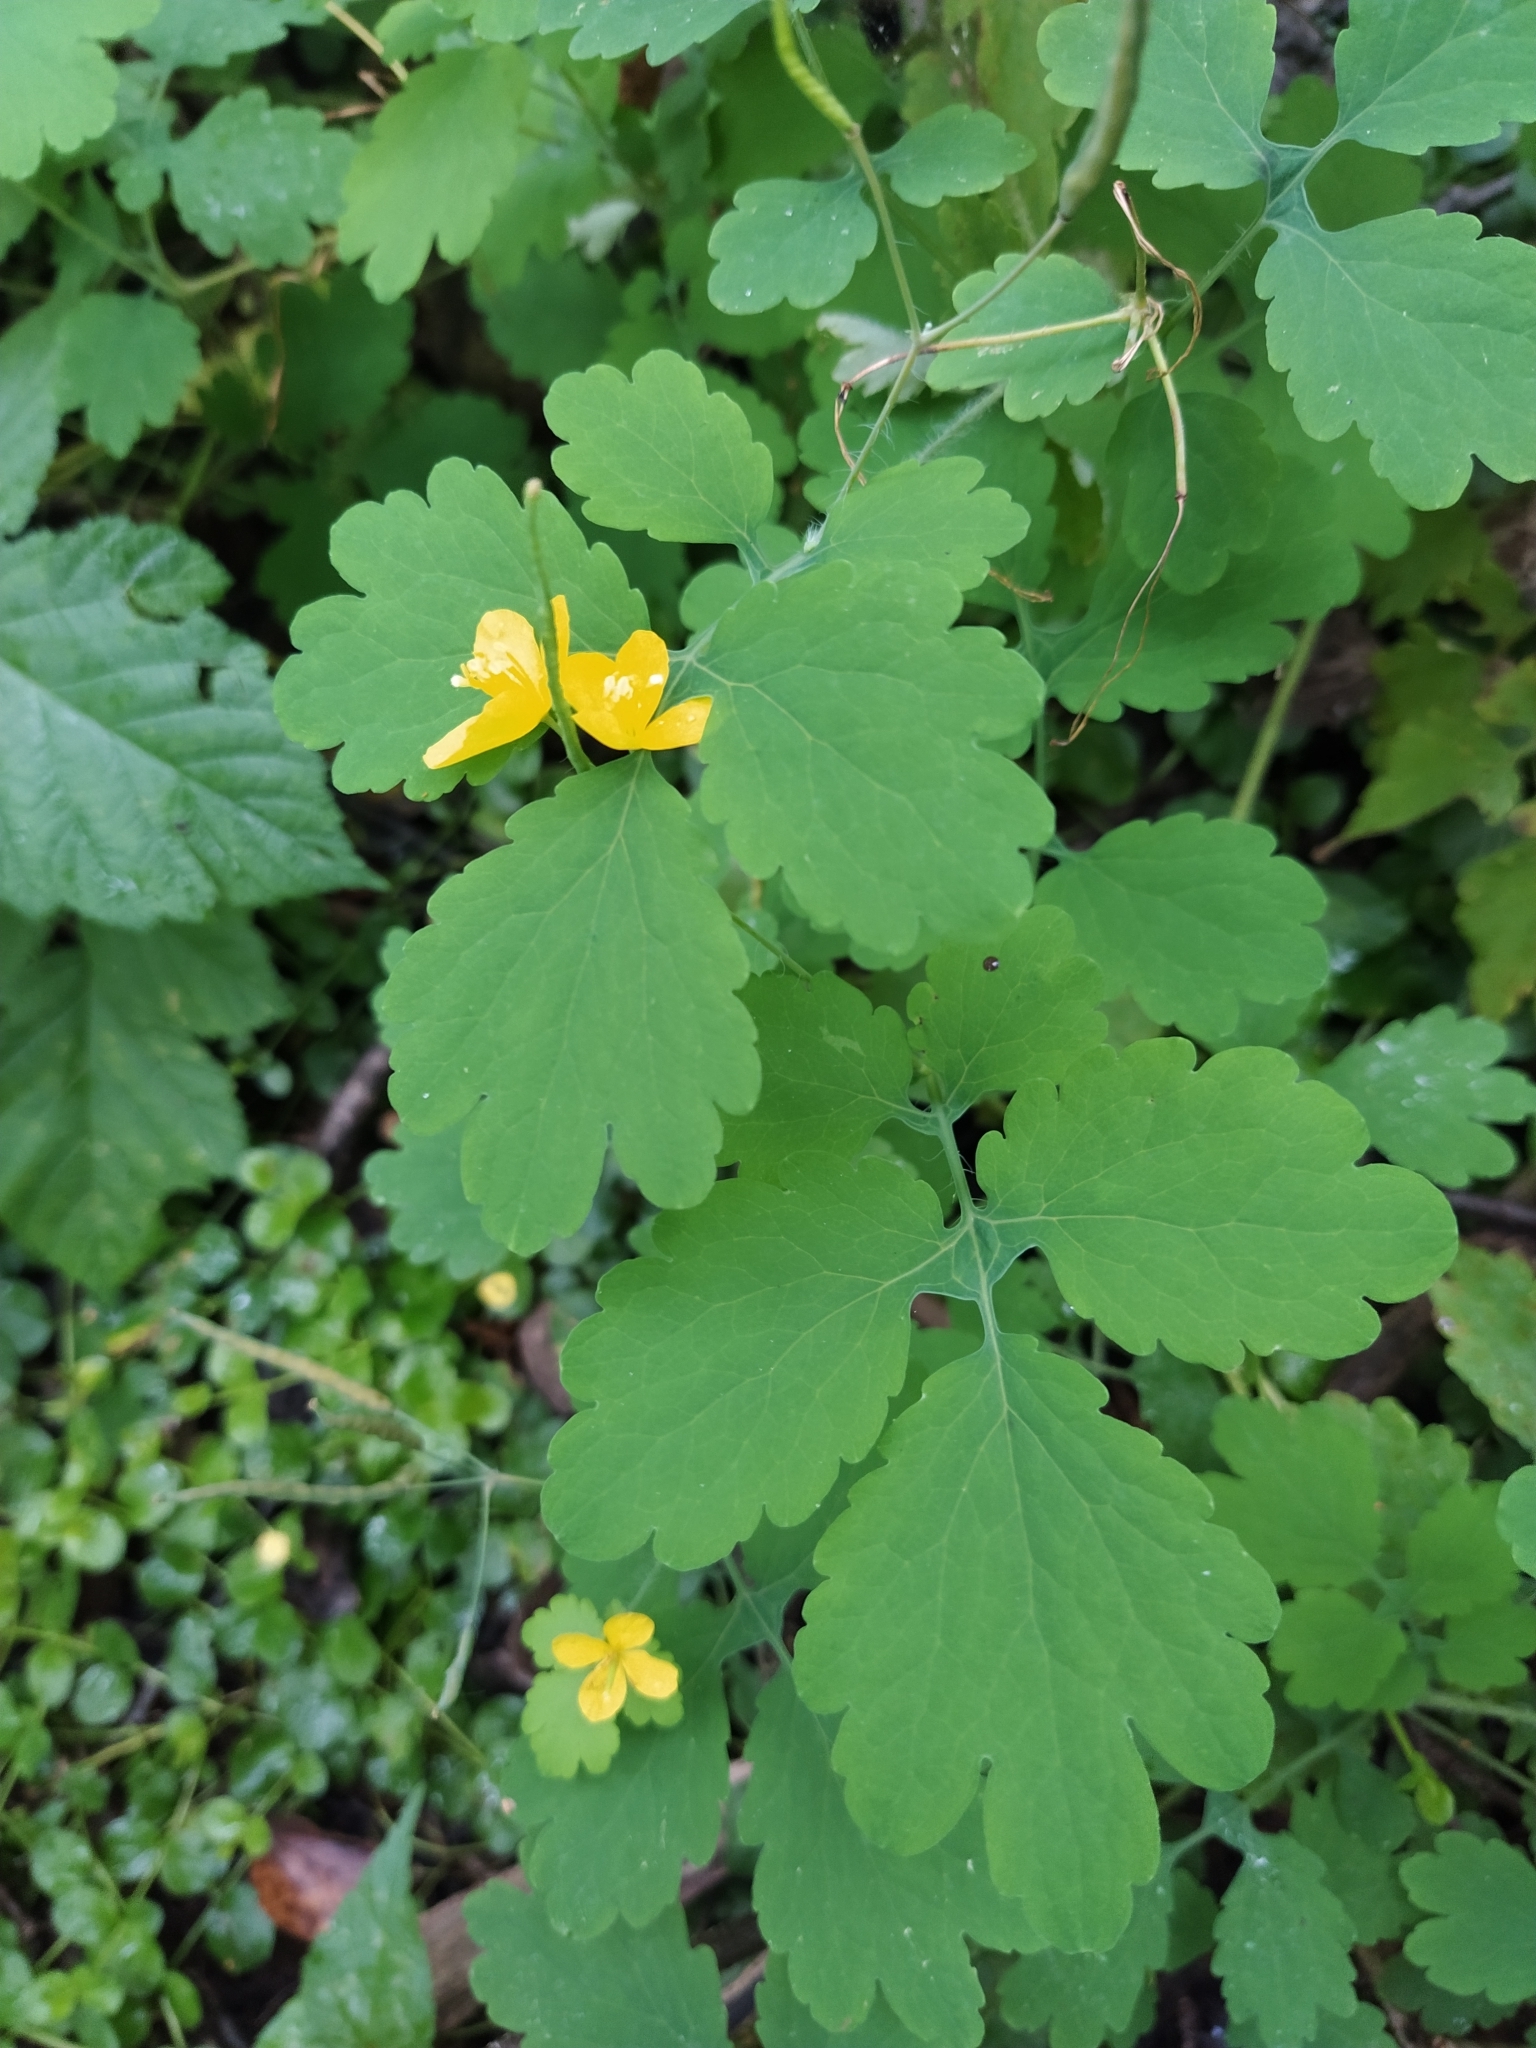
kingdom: Plantae
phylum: Tracheophyta
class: Magnoliopsida
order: Ranunculales
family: Papaveraceae
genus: Chelidonium
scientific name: Chelidonium majus
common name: Greater celandine
